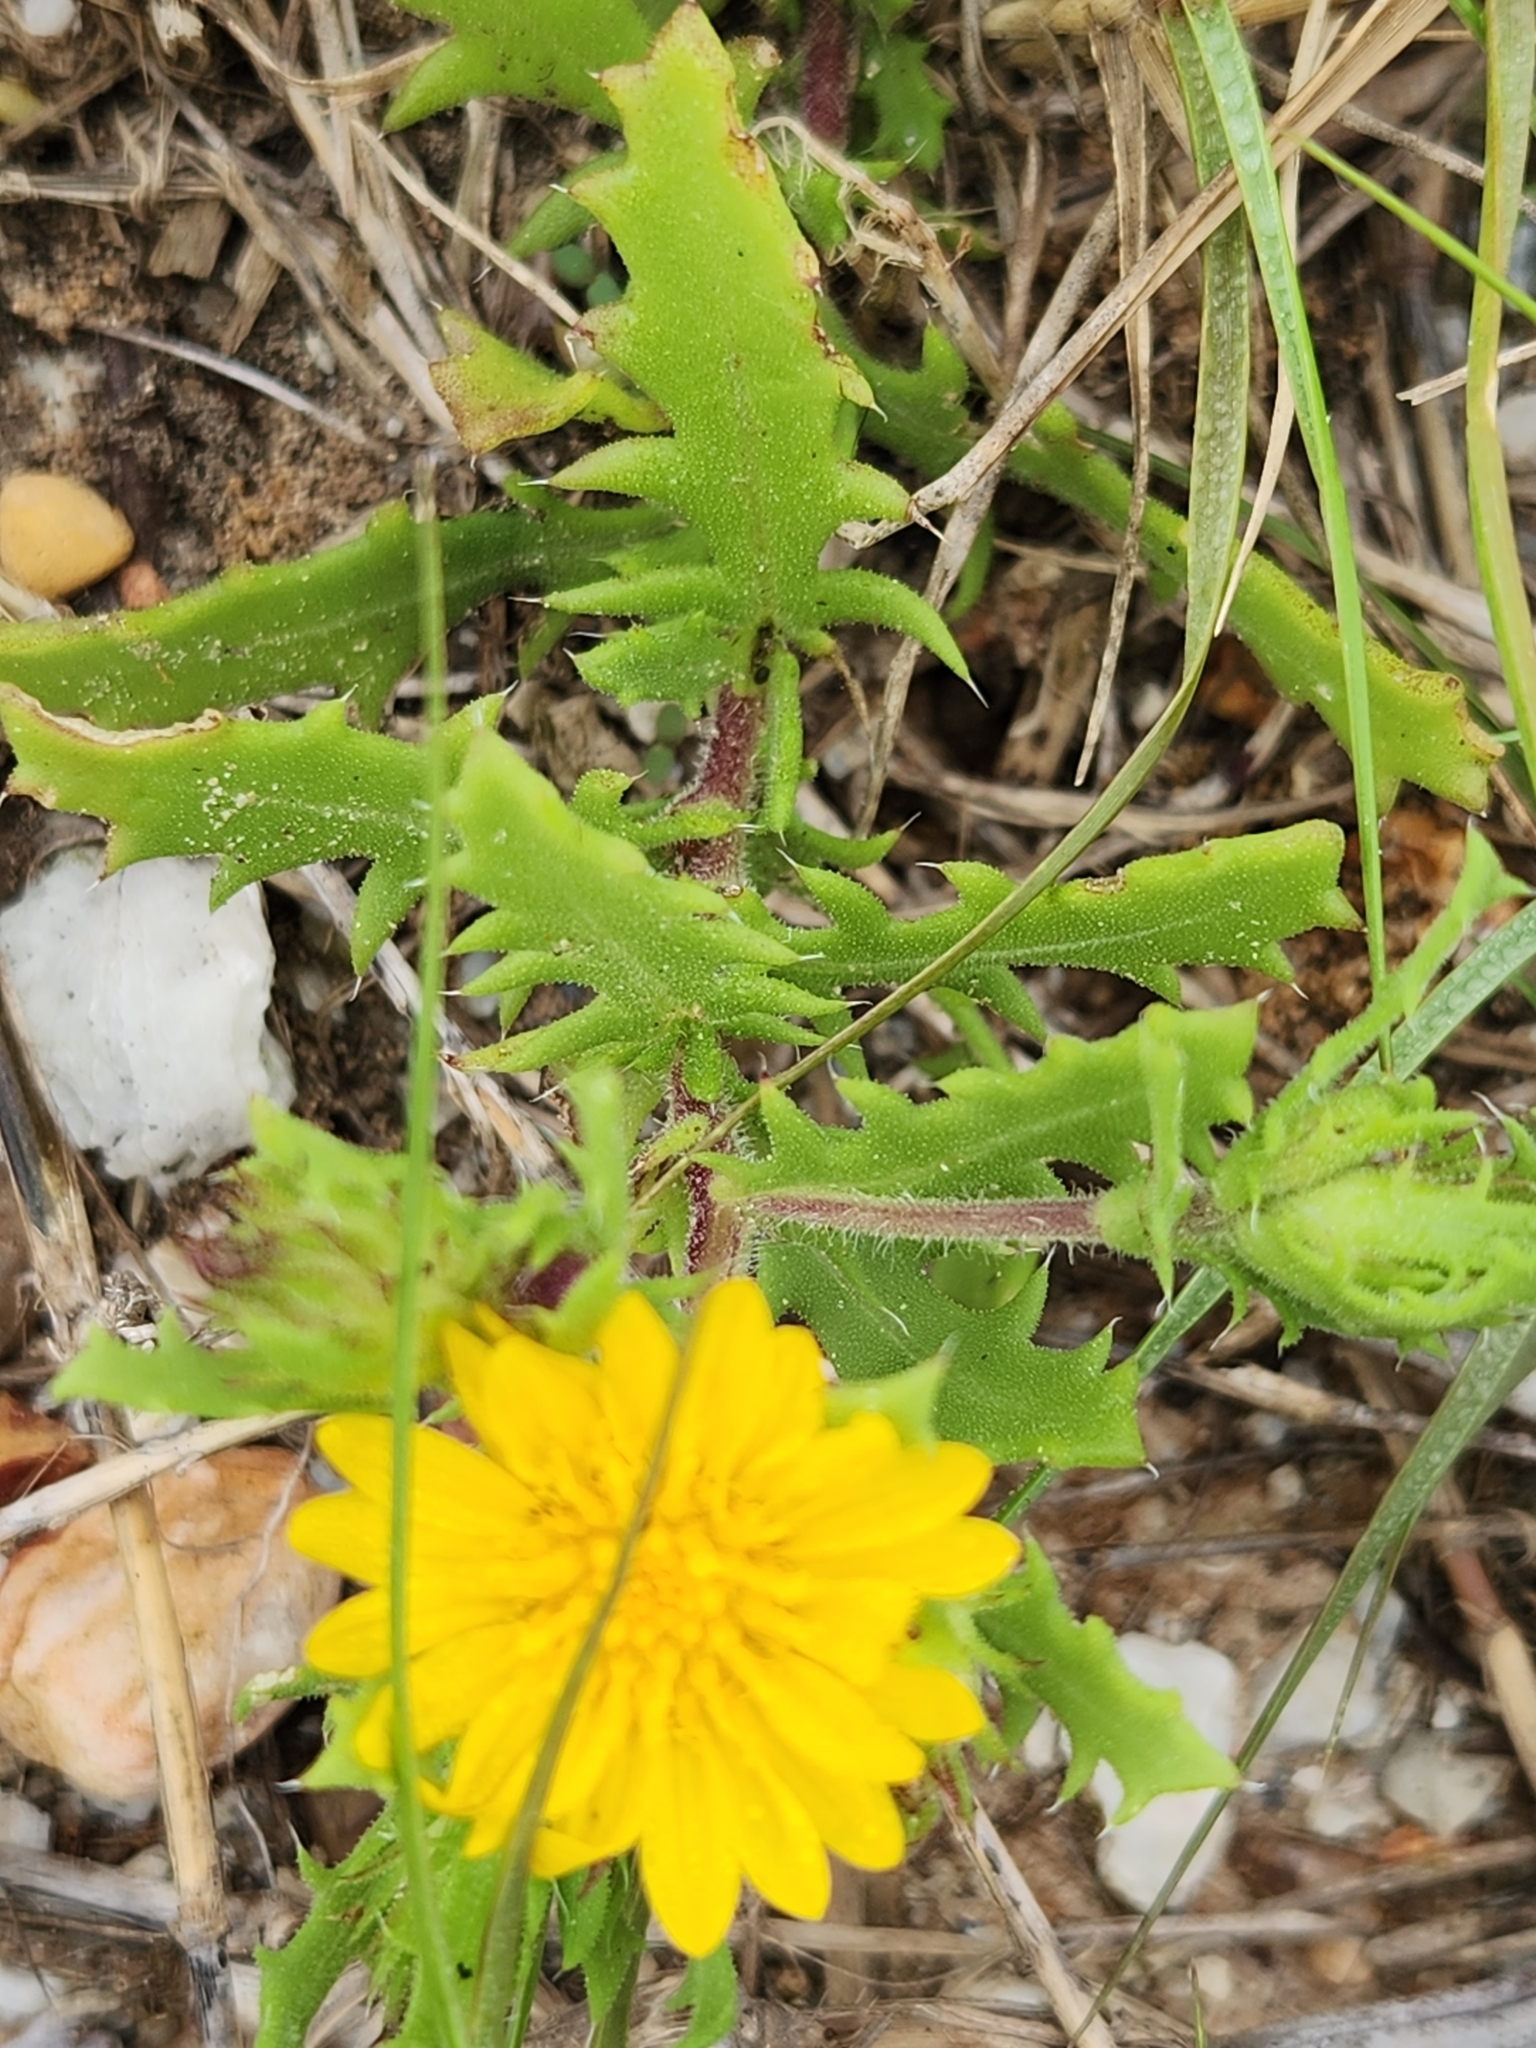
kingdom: Plantae
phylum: Tracheophyta
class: Magnoliopsida
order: Asterales
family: Asteraceae
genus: Rayjacksonia
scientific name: Rayjacksonia phyllocephala
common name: Gulf coast camphor daisy
